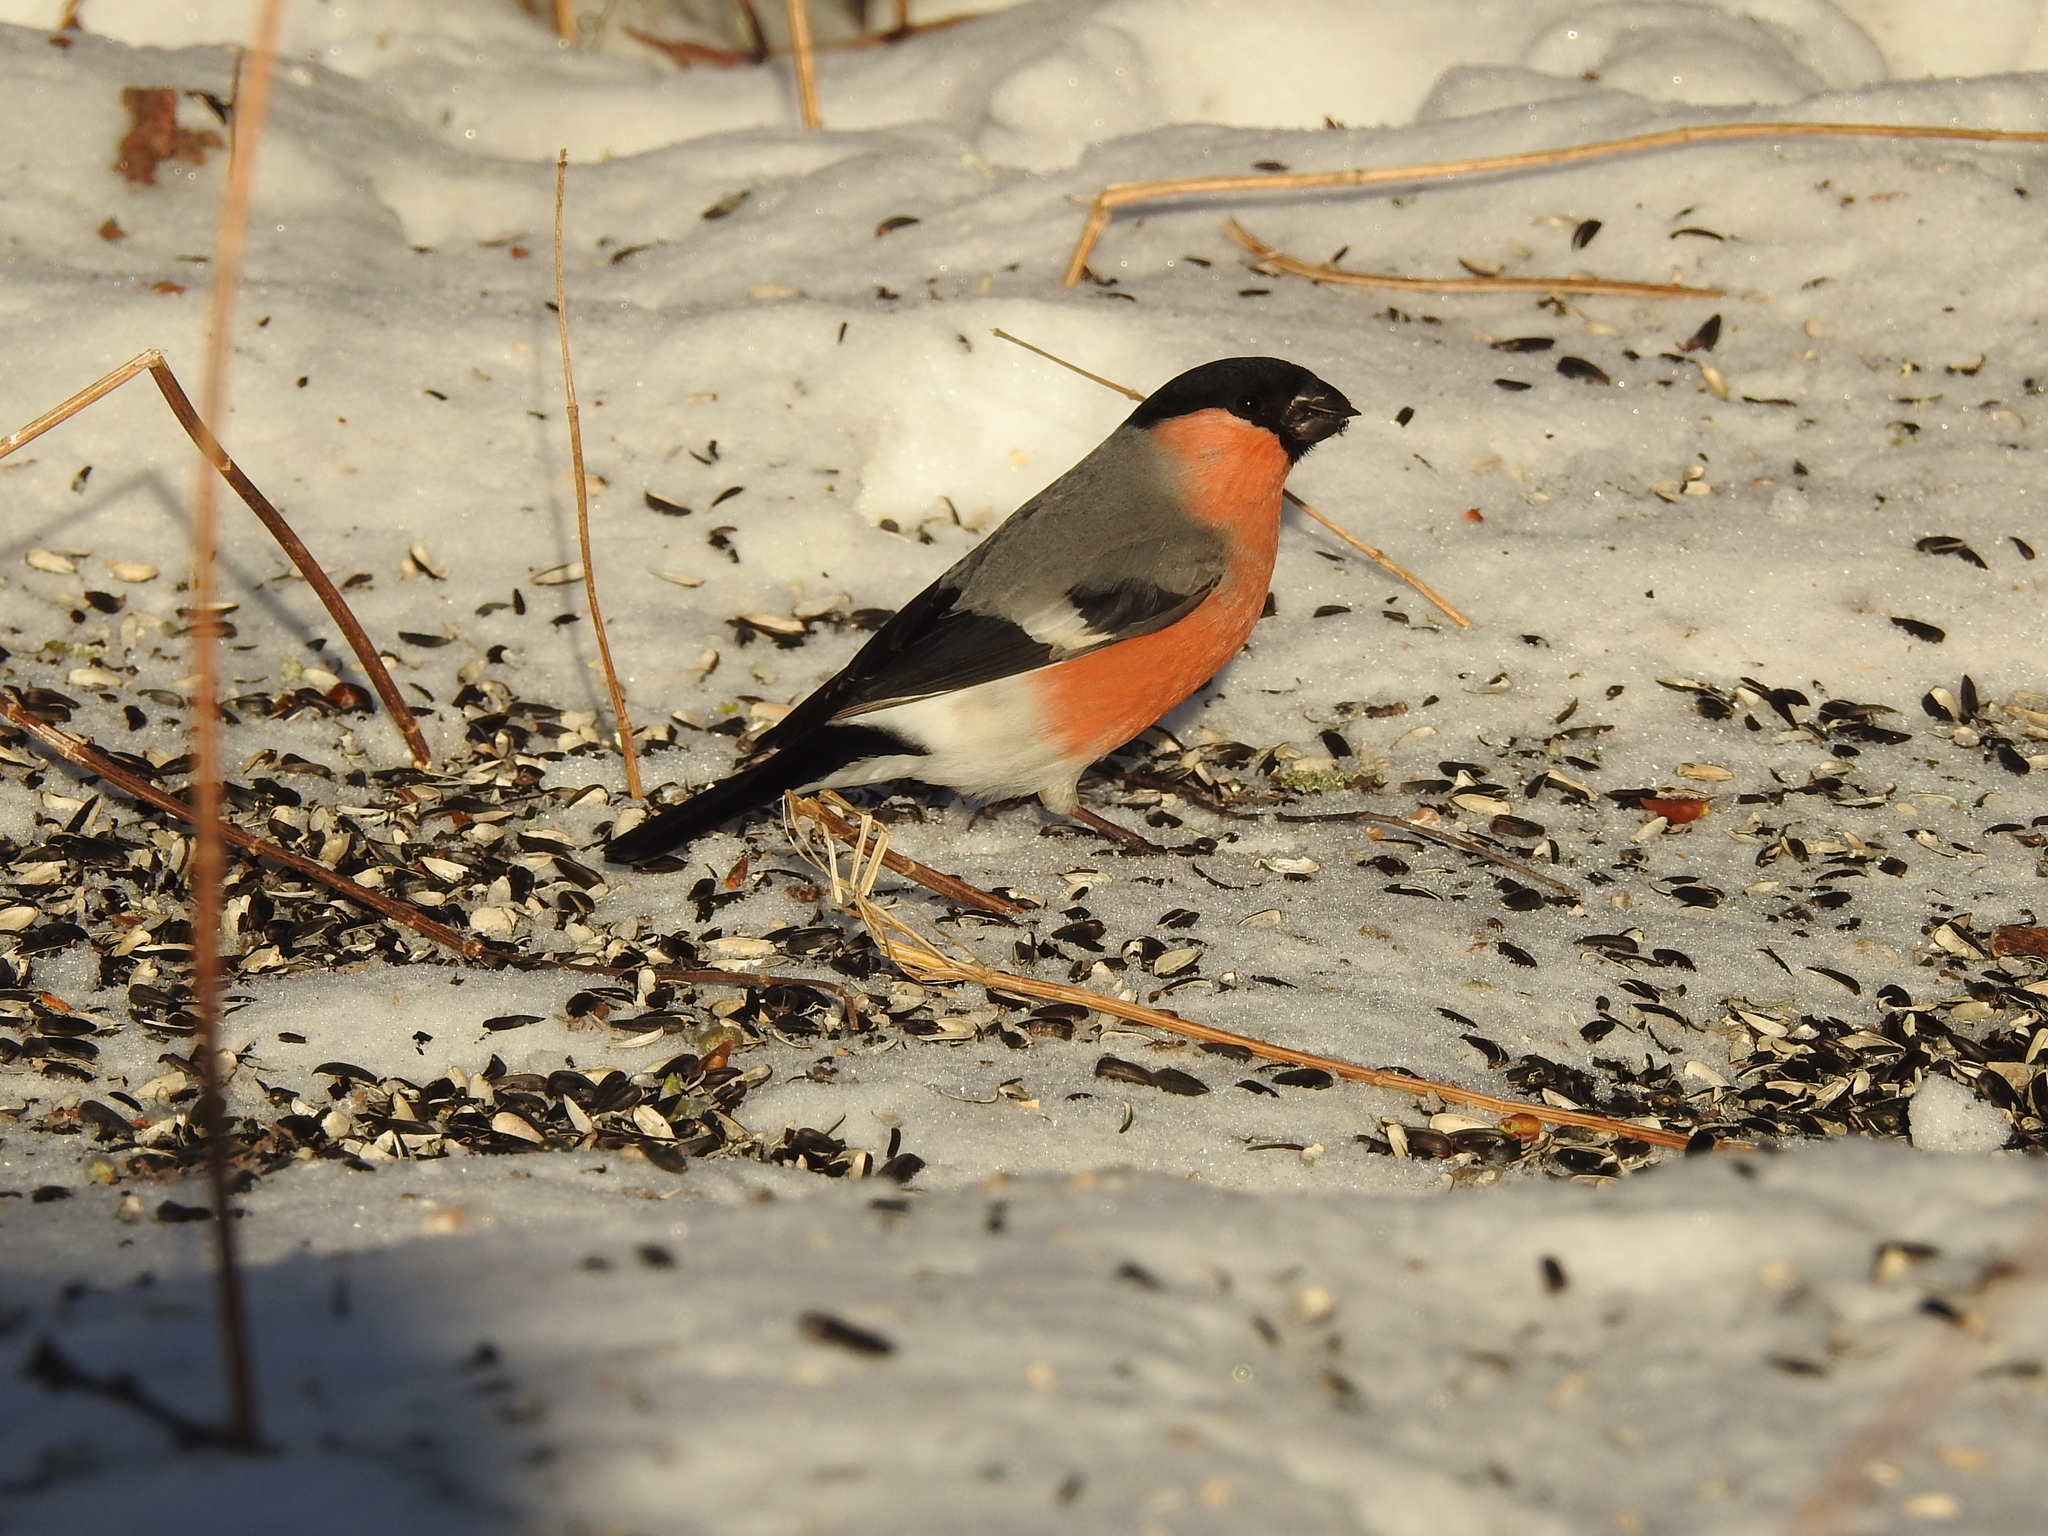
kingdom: Animalia
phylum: Chordata
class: Aves
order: Passeriformes
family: Fringillidae
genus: Pyrrhula
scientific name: Pyrrhula pyrrhula
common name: Eurasian bullfinch
